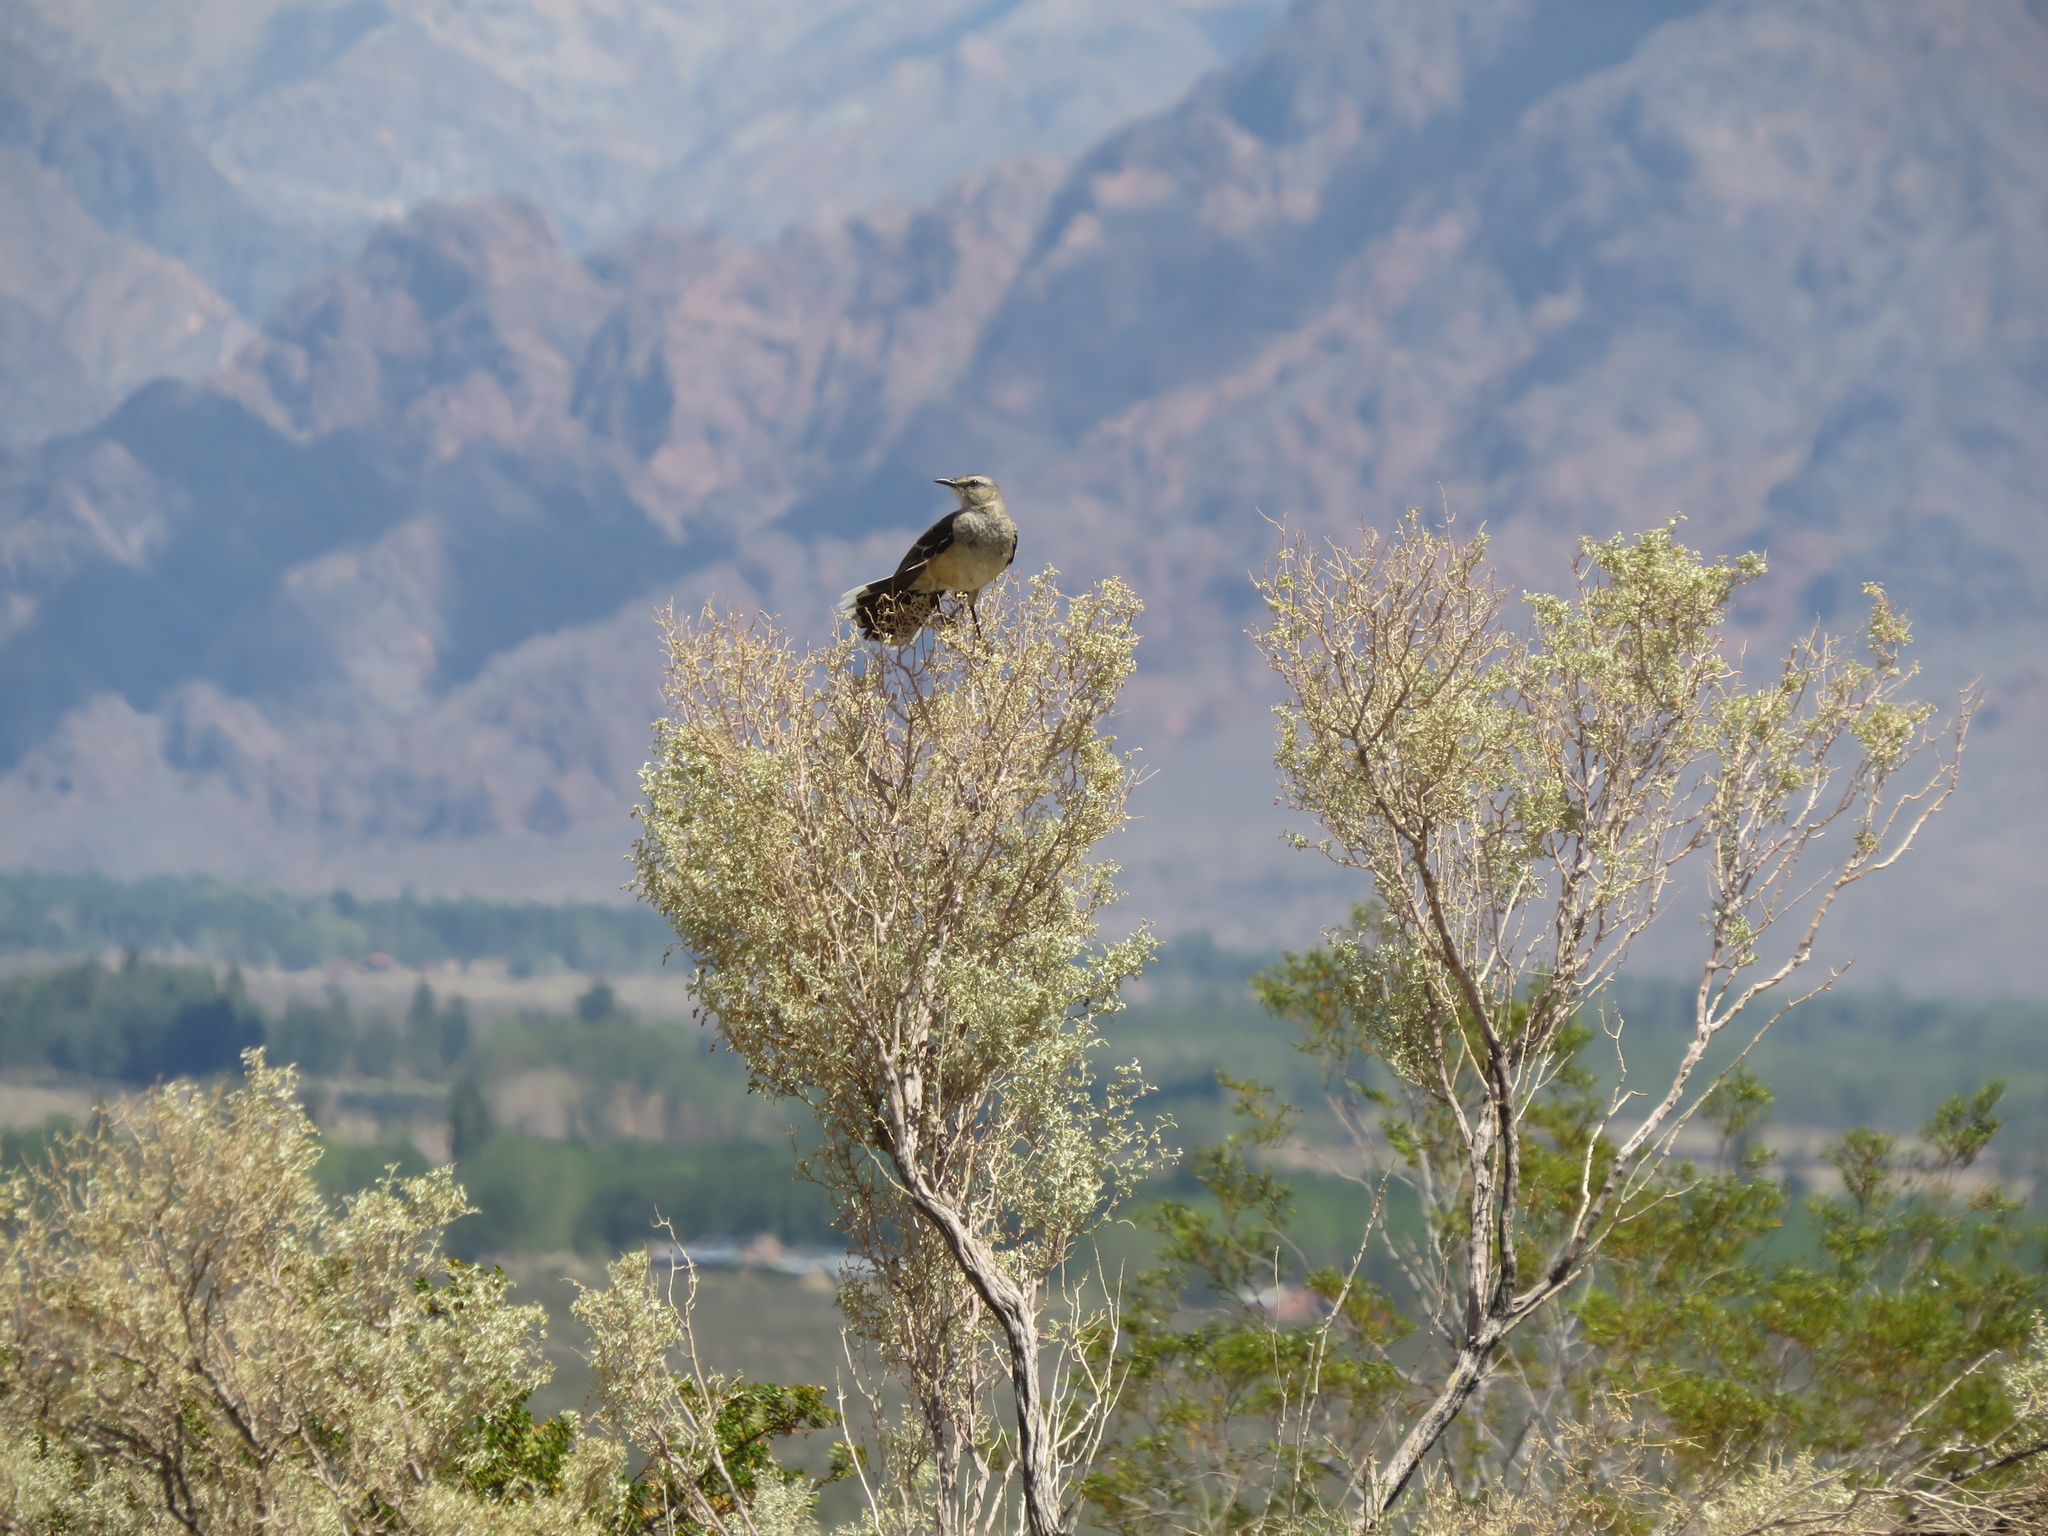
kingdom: Animalia
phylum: Chordata
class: Aves
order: Passeriformes
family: Mimidae
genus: Mimus
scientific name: Mimus patagonicus
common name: Patagonian mockingbird
